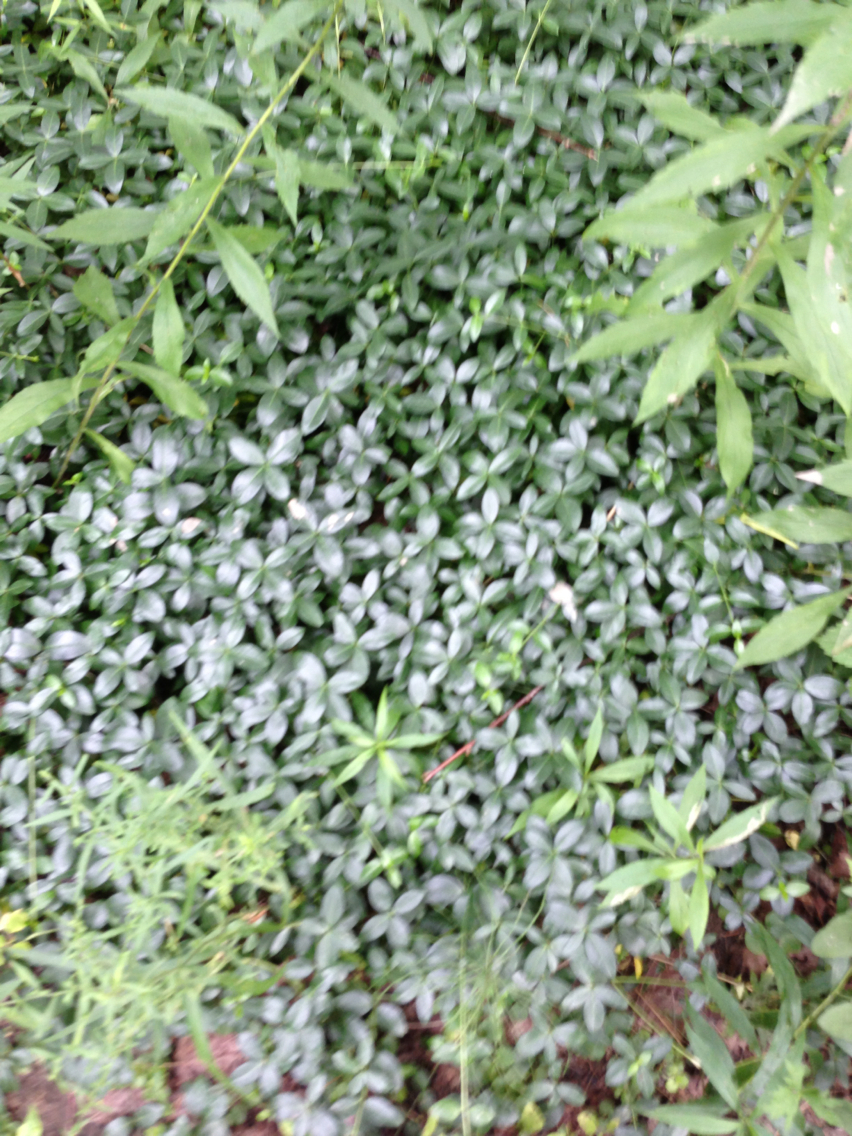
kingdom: Plantae
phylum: Tracheophyta
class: Magnoliopsida
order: Gentianales
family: Apocynaceae
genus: Vinca
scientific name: Vinca minor
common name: Lesser periwinkle
